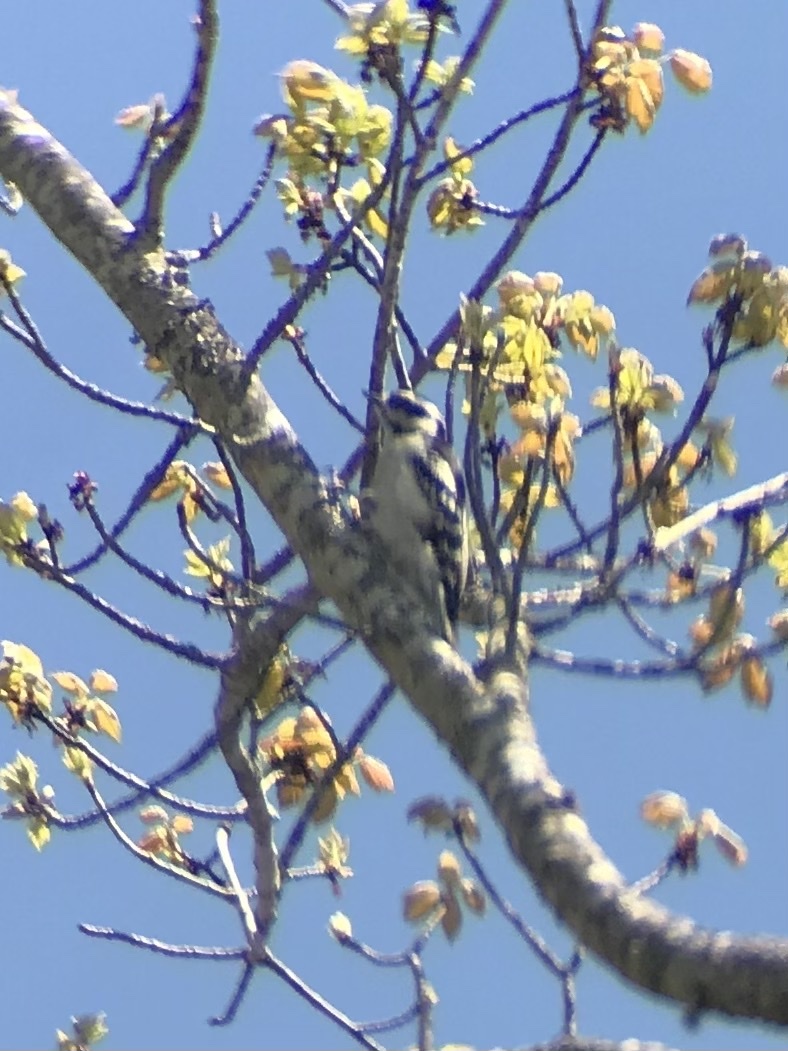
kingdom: Animalia
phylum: Chordata
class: Aves
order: Piciformes
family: Picidae
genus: Dryobates
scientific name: Dryobates pubescens
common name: Downy woodpecker
